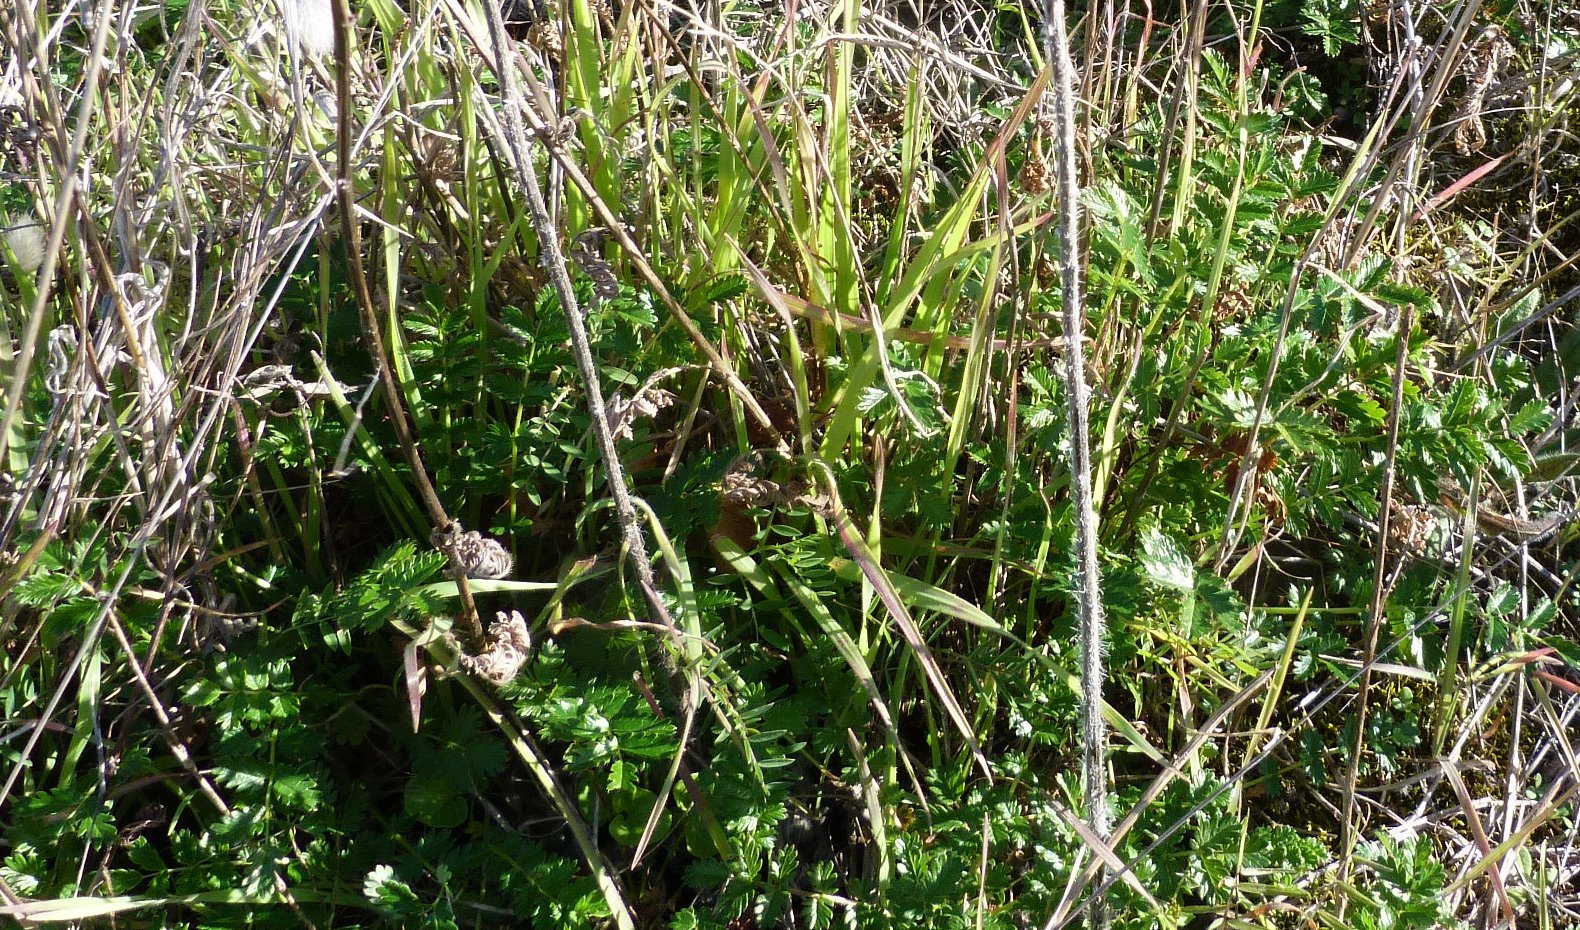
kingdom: Plantae
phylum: Tracheophyta
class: Magnoliopsida
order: Rosales
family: Rosaceae
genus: Acaena
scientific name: Acaena agnipila
